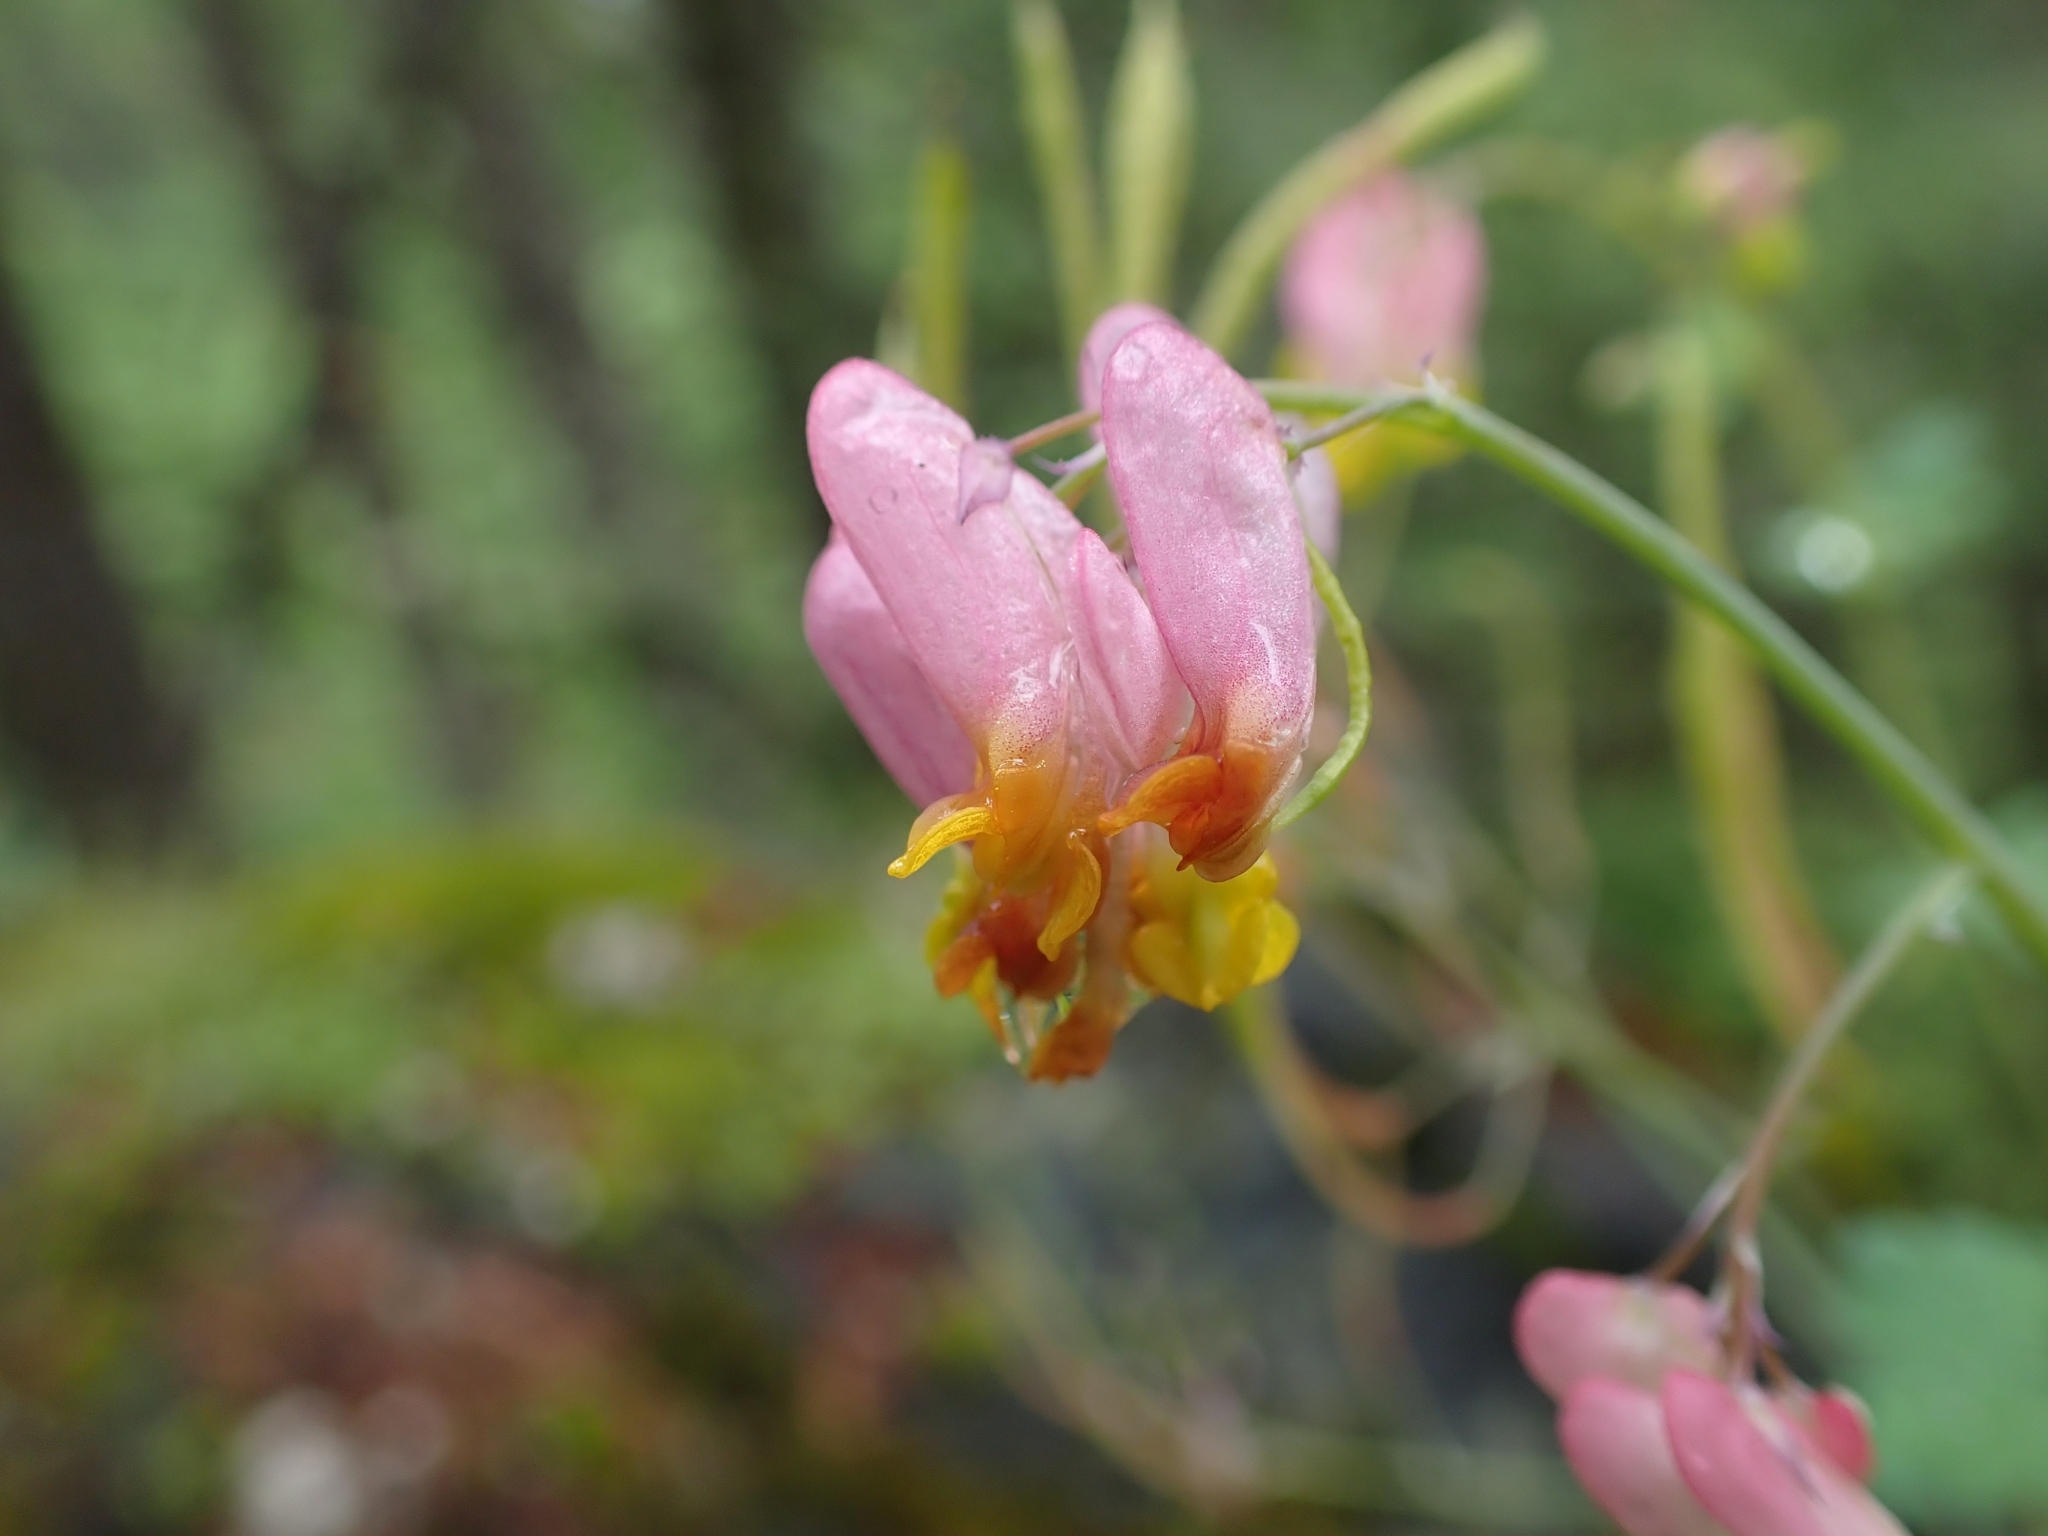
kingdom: Plantae
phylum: Tracheophyta
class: Magnoliopsida
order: Ranunculales
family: Papaveraceae
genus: Capnoides
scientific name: Capnoides sempervirens
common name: Rock harlequin
